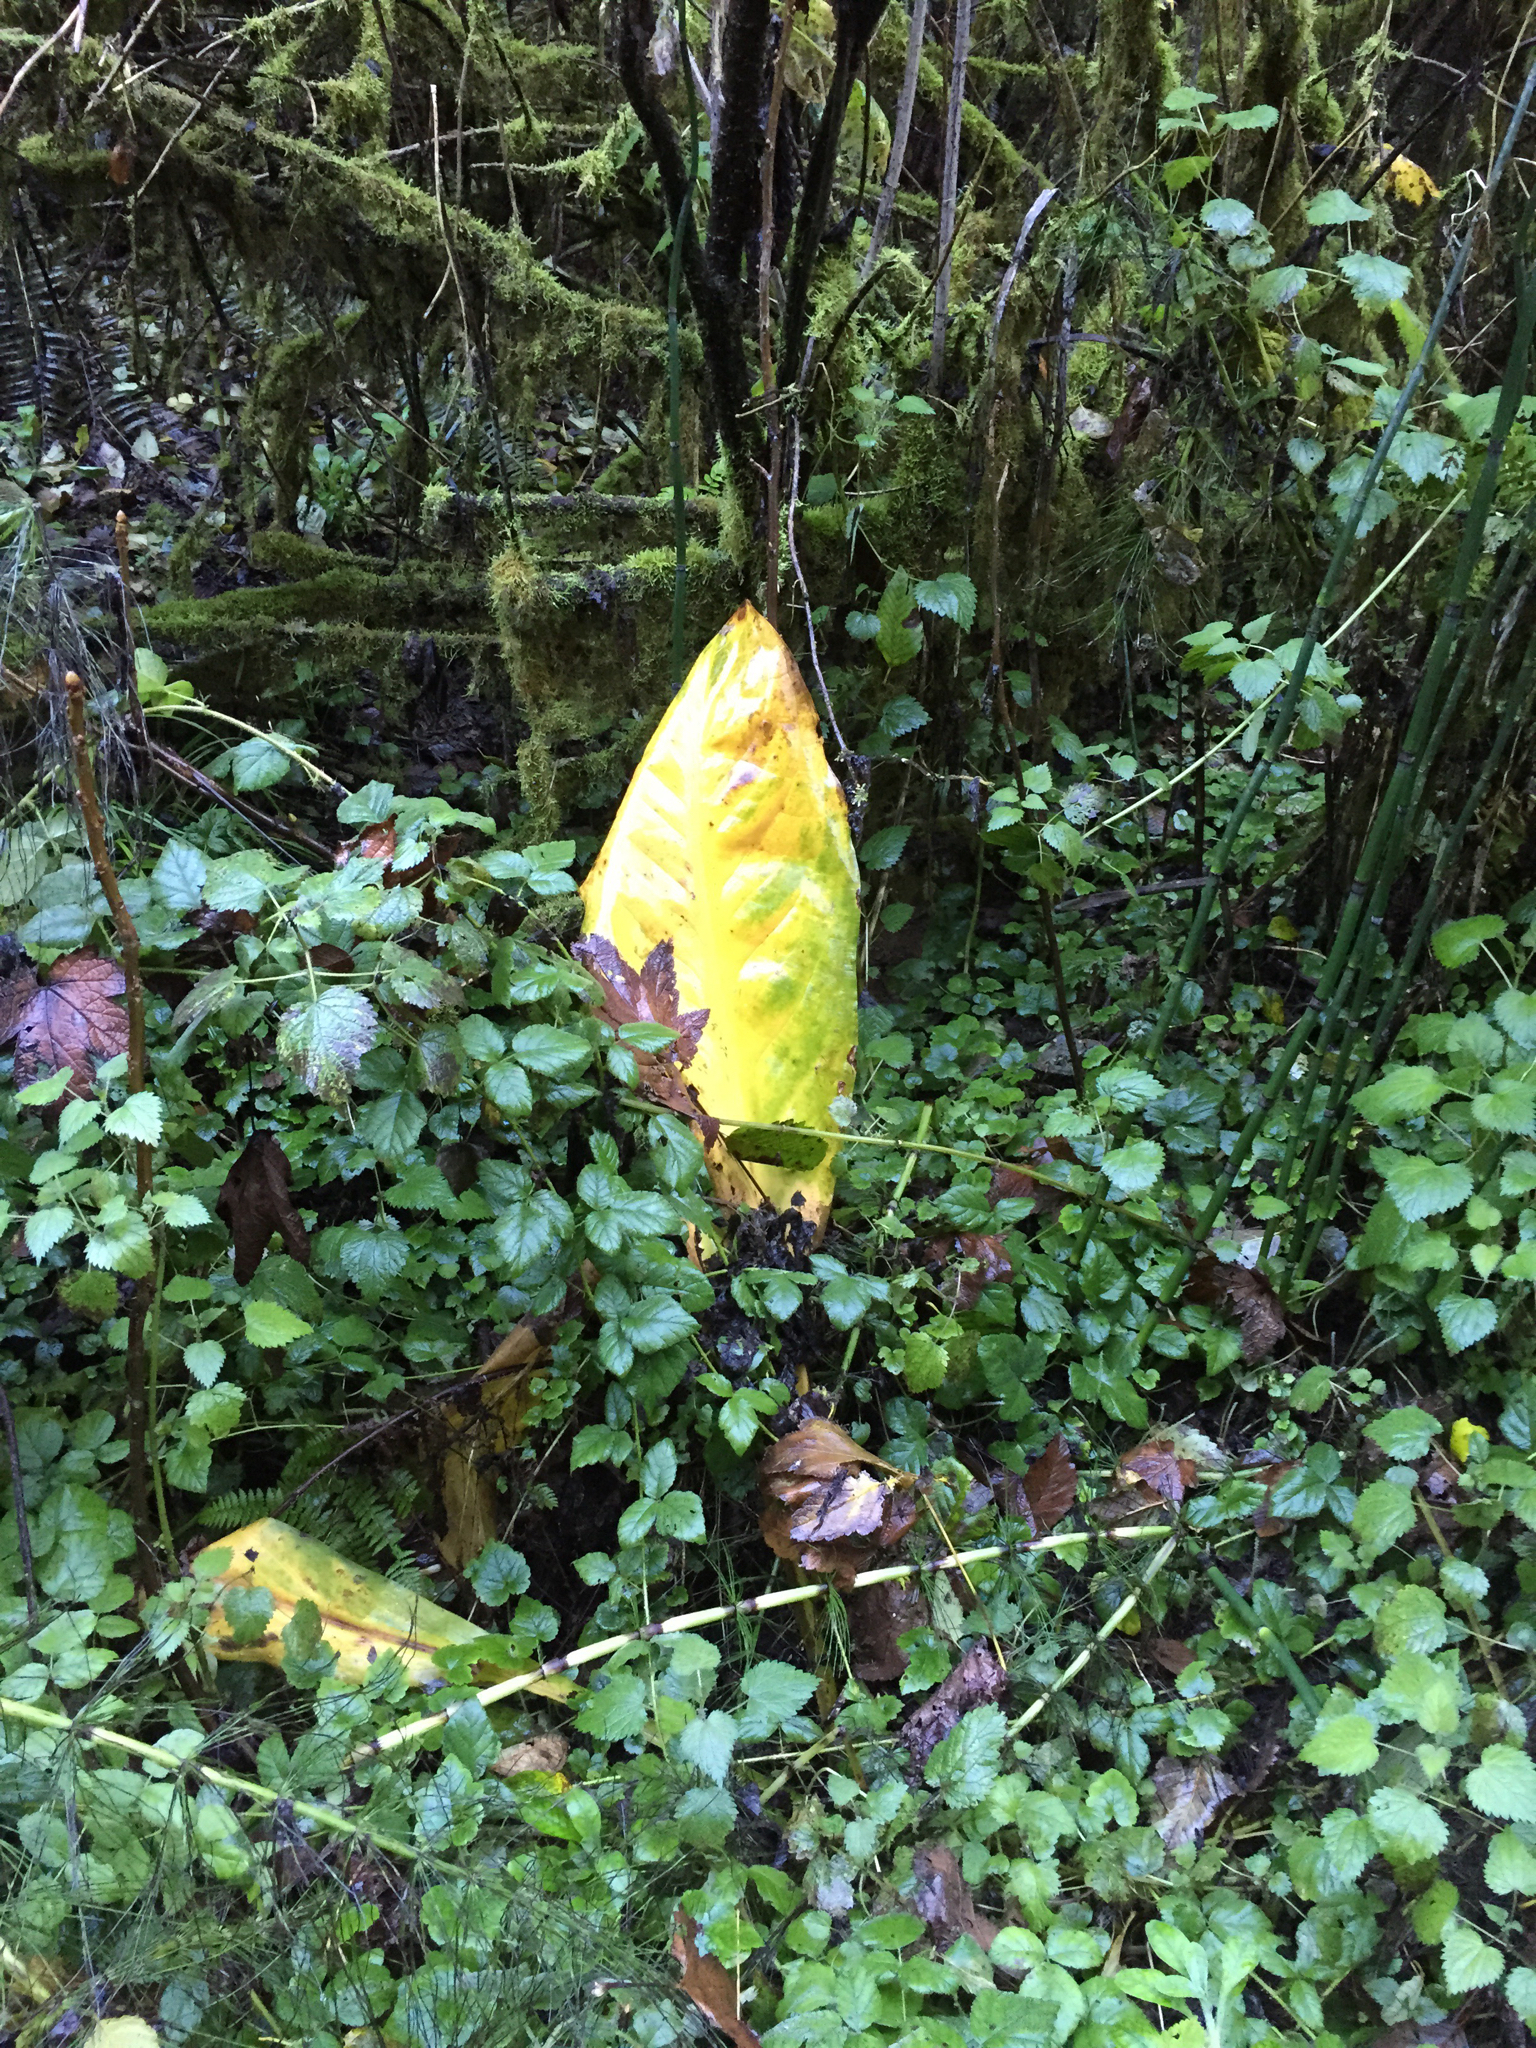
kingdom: Plantae
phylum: Tracheophyta
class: Liliopsida
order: Alismatales
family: Araceae
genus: Lysichiton
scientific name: Lysichiton americanus
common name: American skunk cabbage
